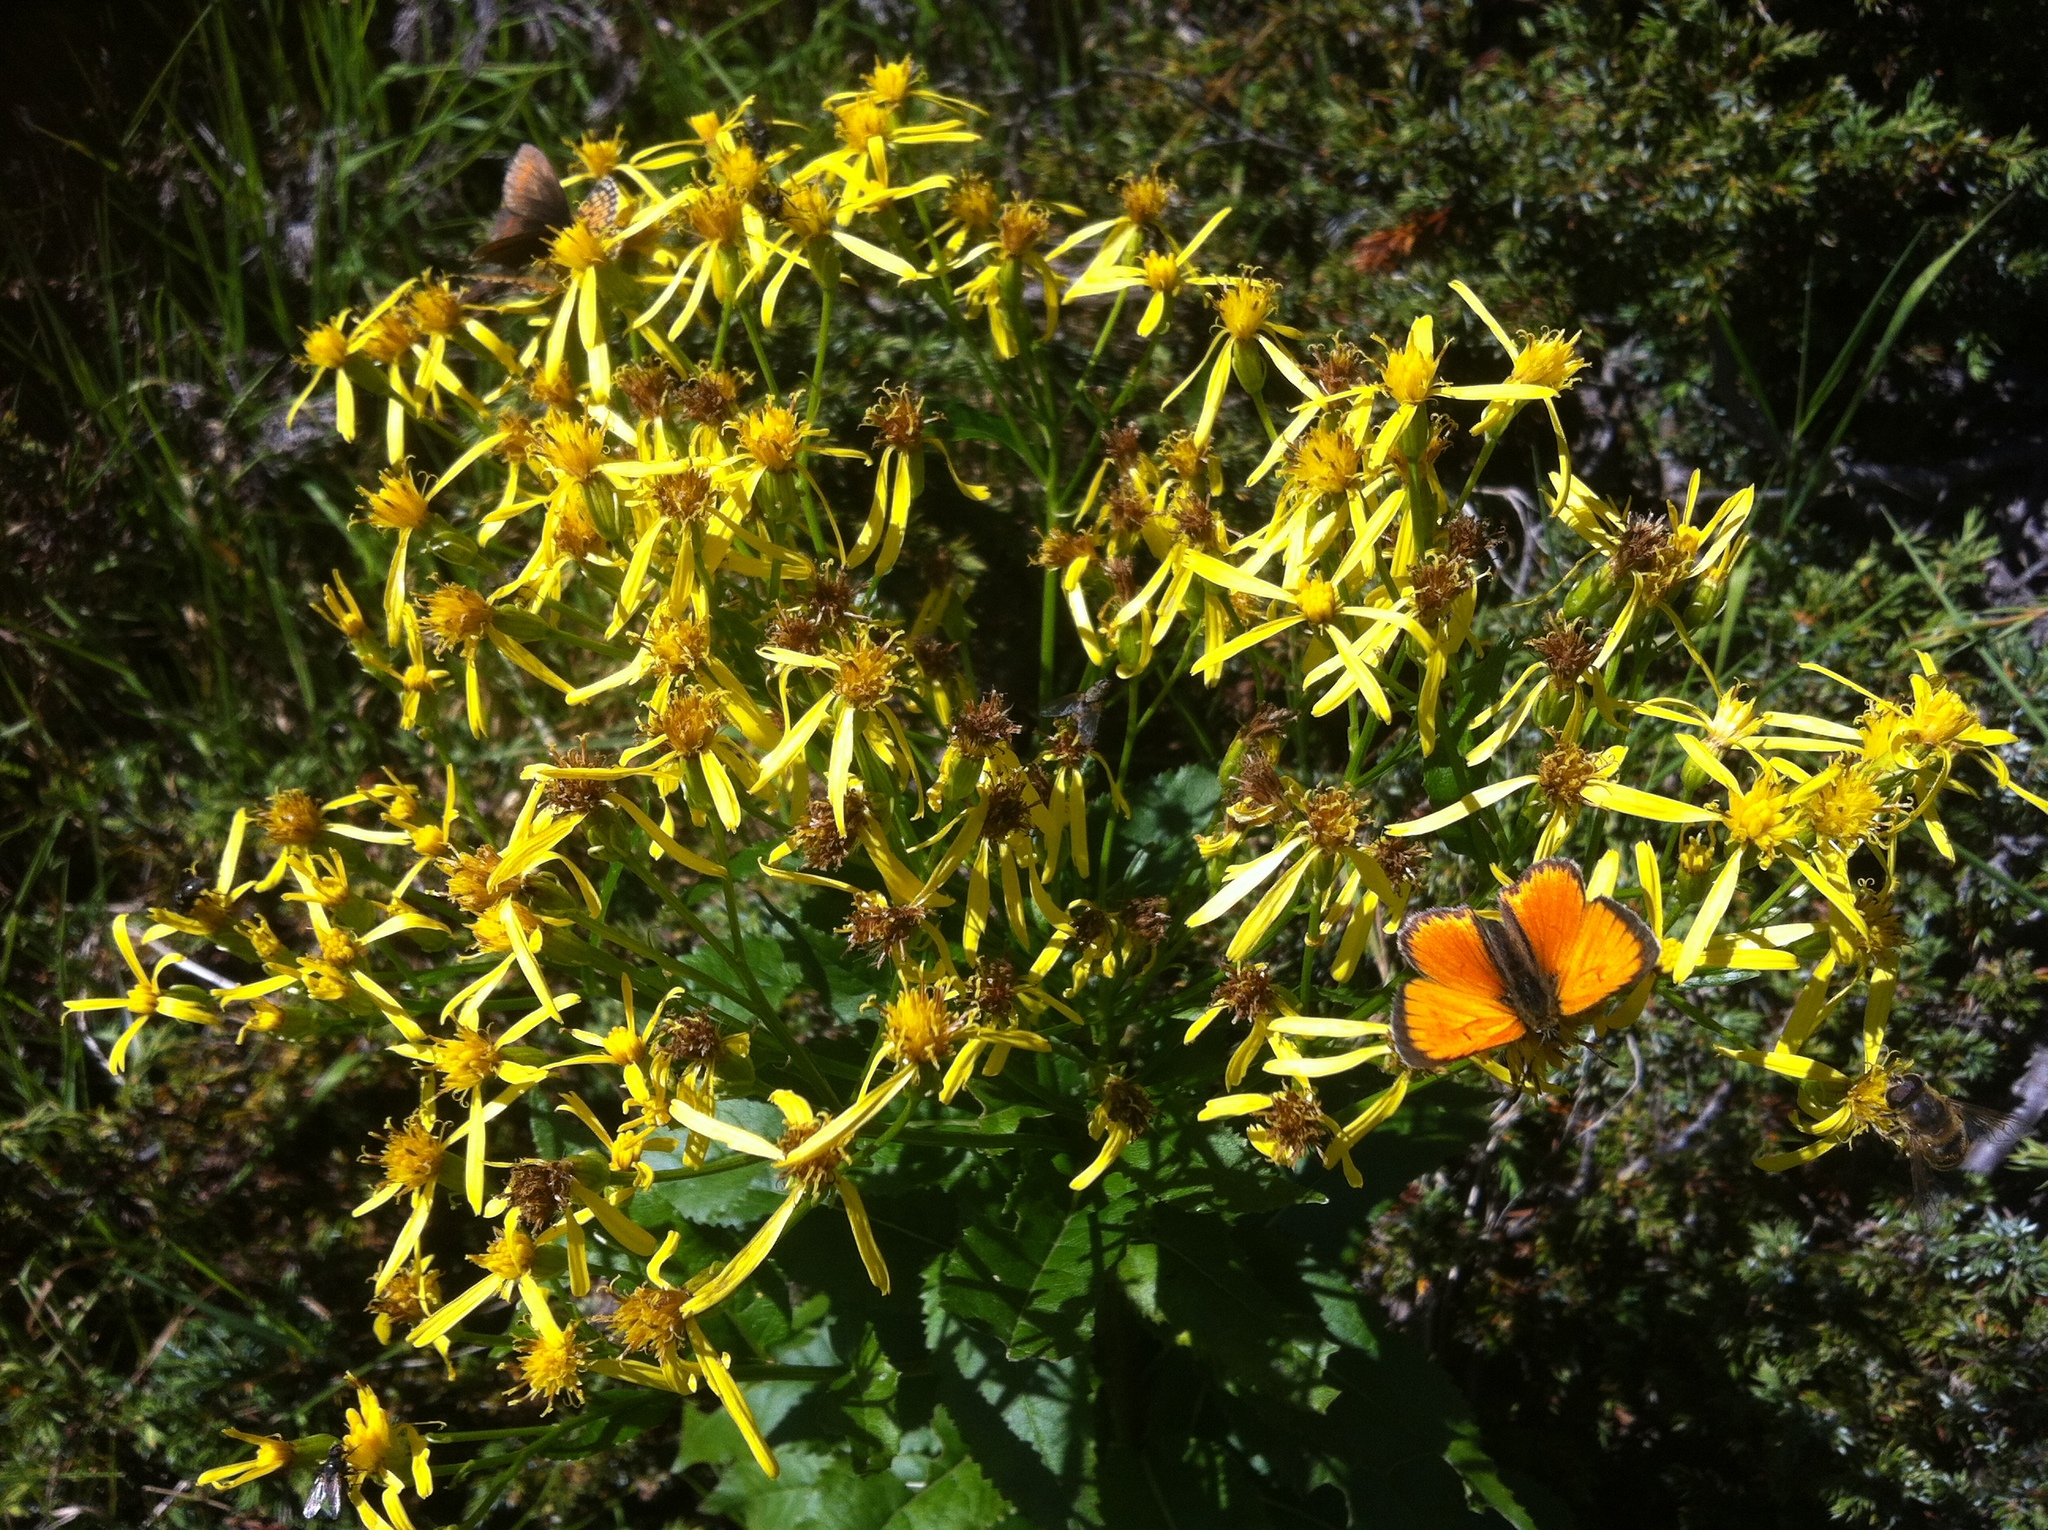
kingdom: Animalia
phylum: Arthropoda
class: Insecta
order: Lepidoptera
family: Lycaenidae
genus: Lycaena
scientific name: Lycaena virgaureae
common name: Scarce copper
